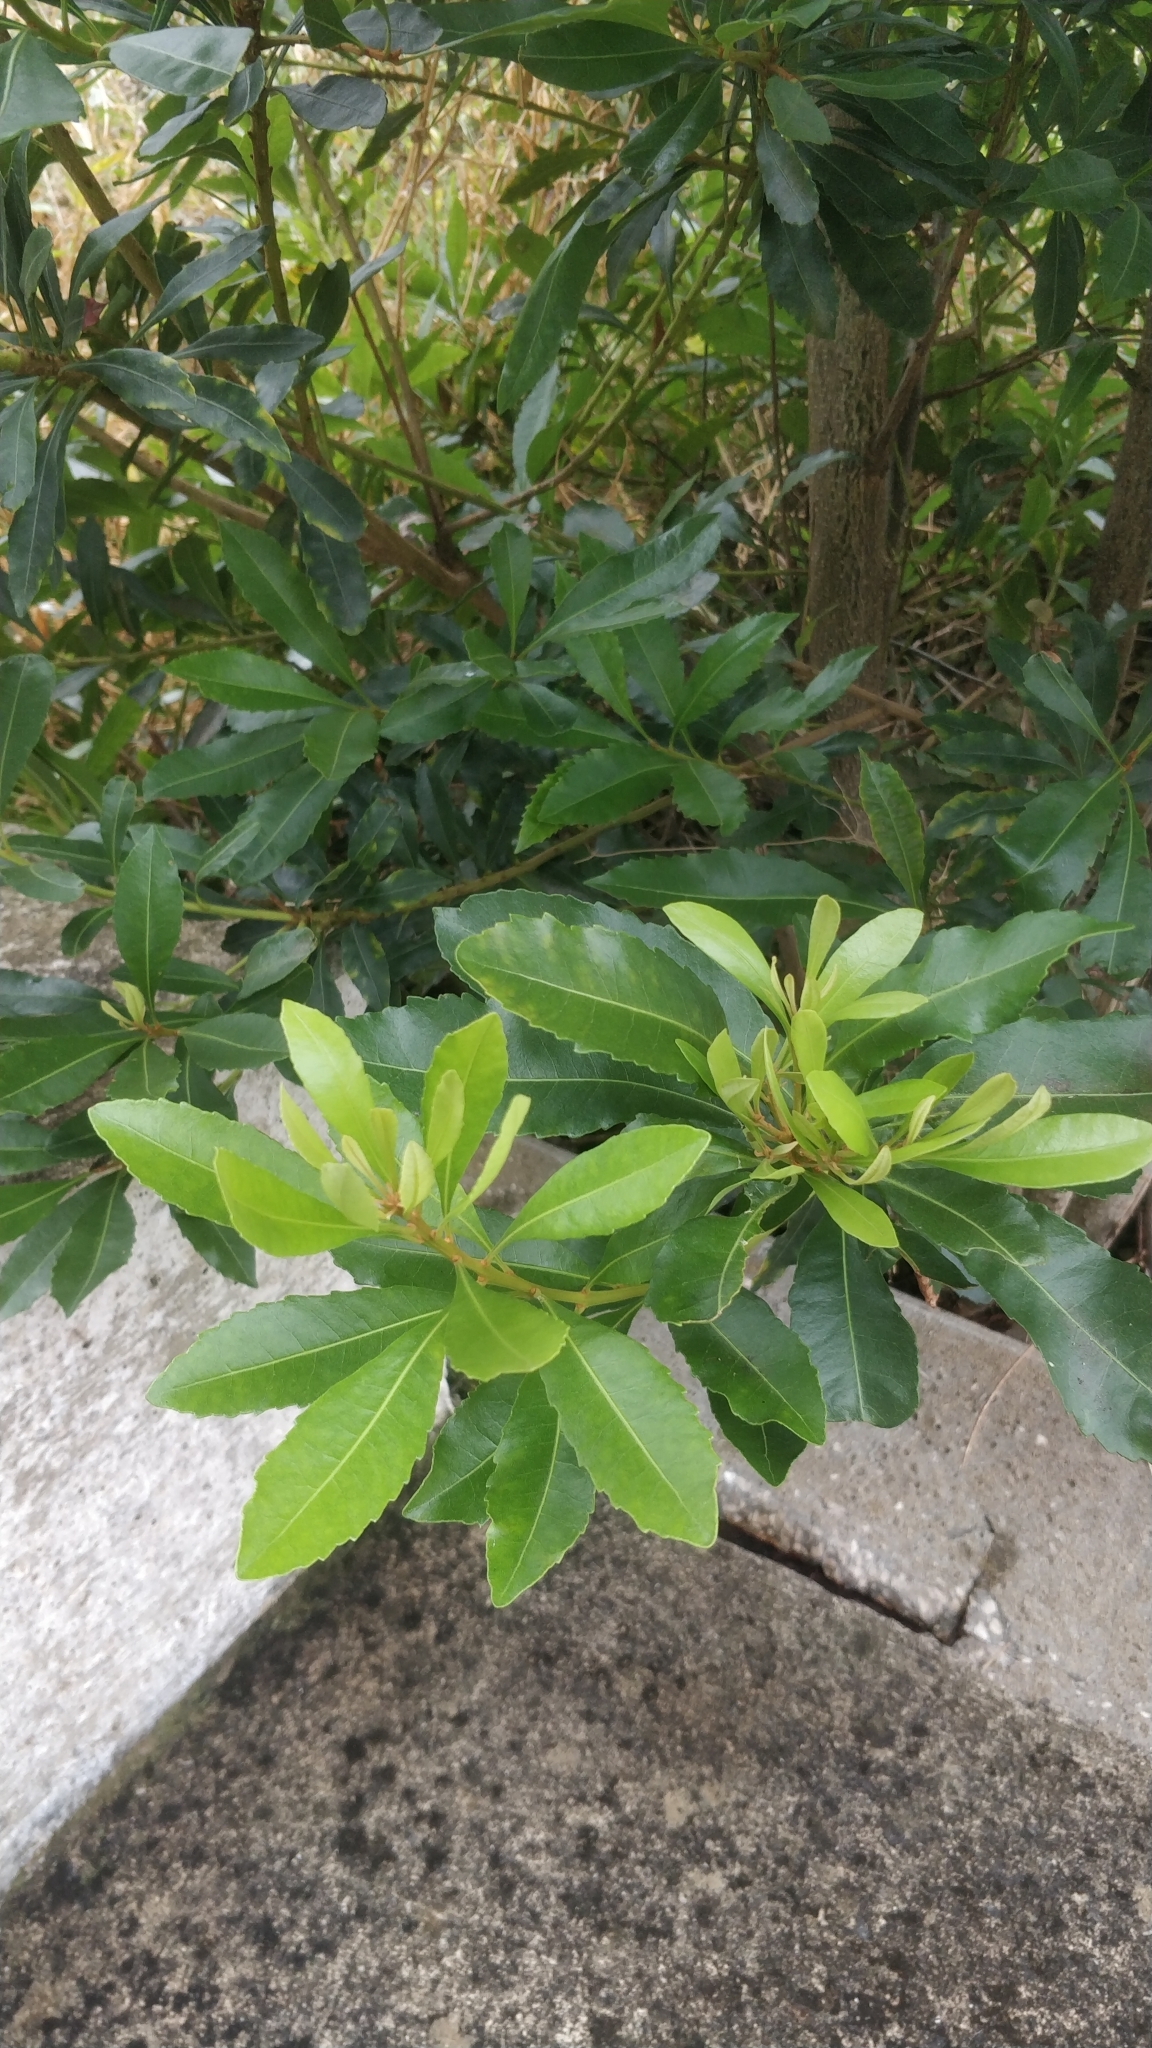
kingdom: Plantae
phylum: Tracheophyta
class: Magnoliopsida
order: Fagales
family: Myricaceae
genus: Morella
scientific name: Morella faya
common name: Firetree
